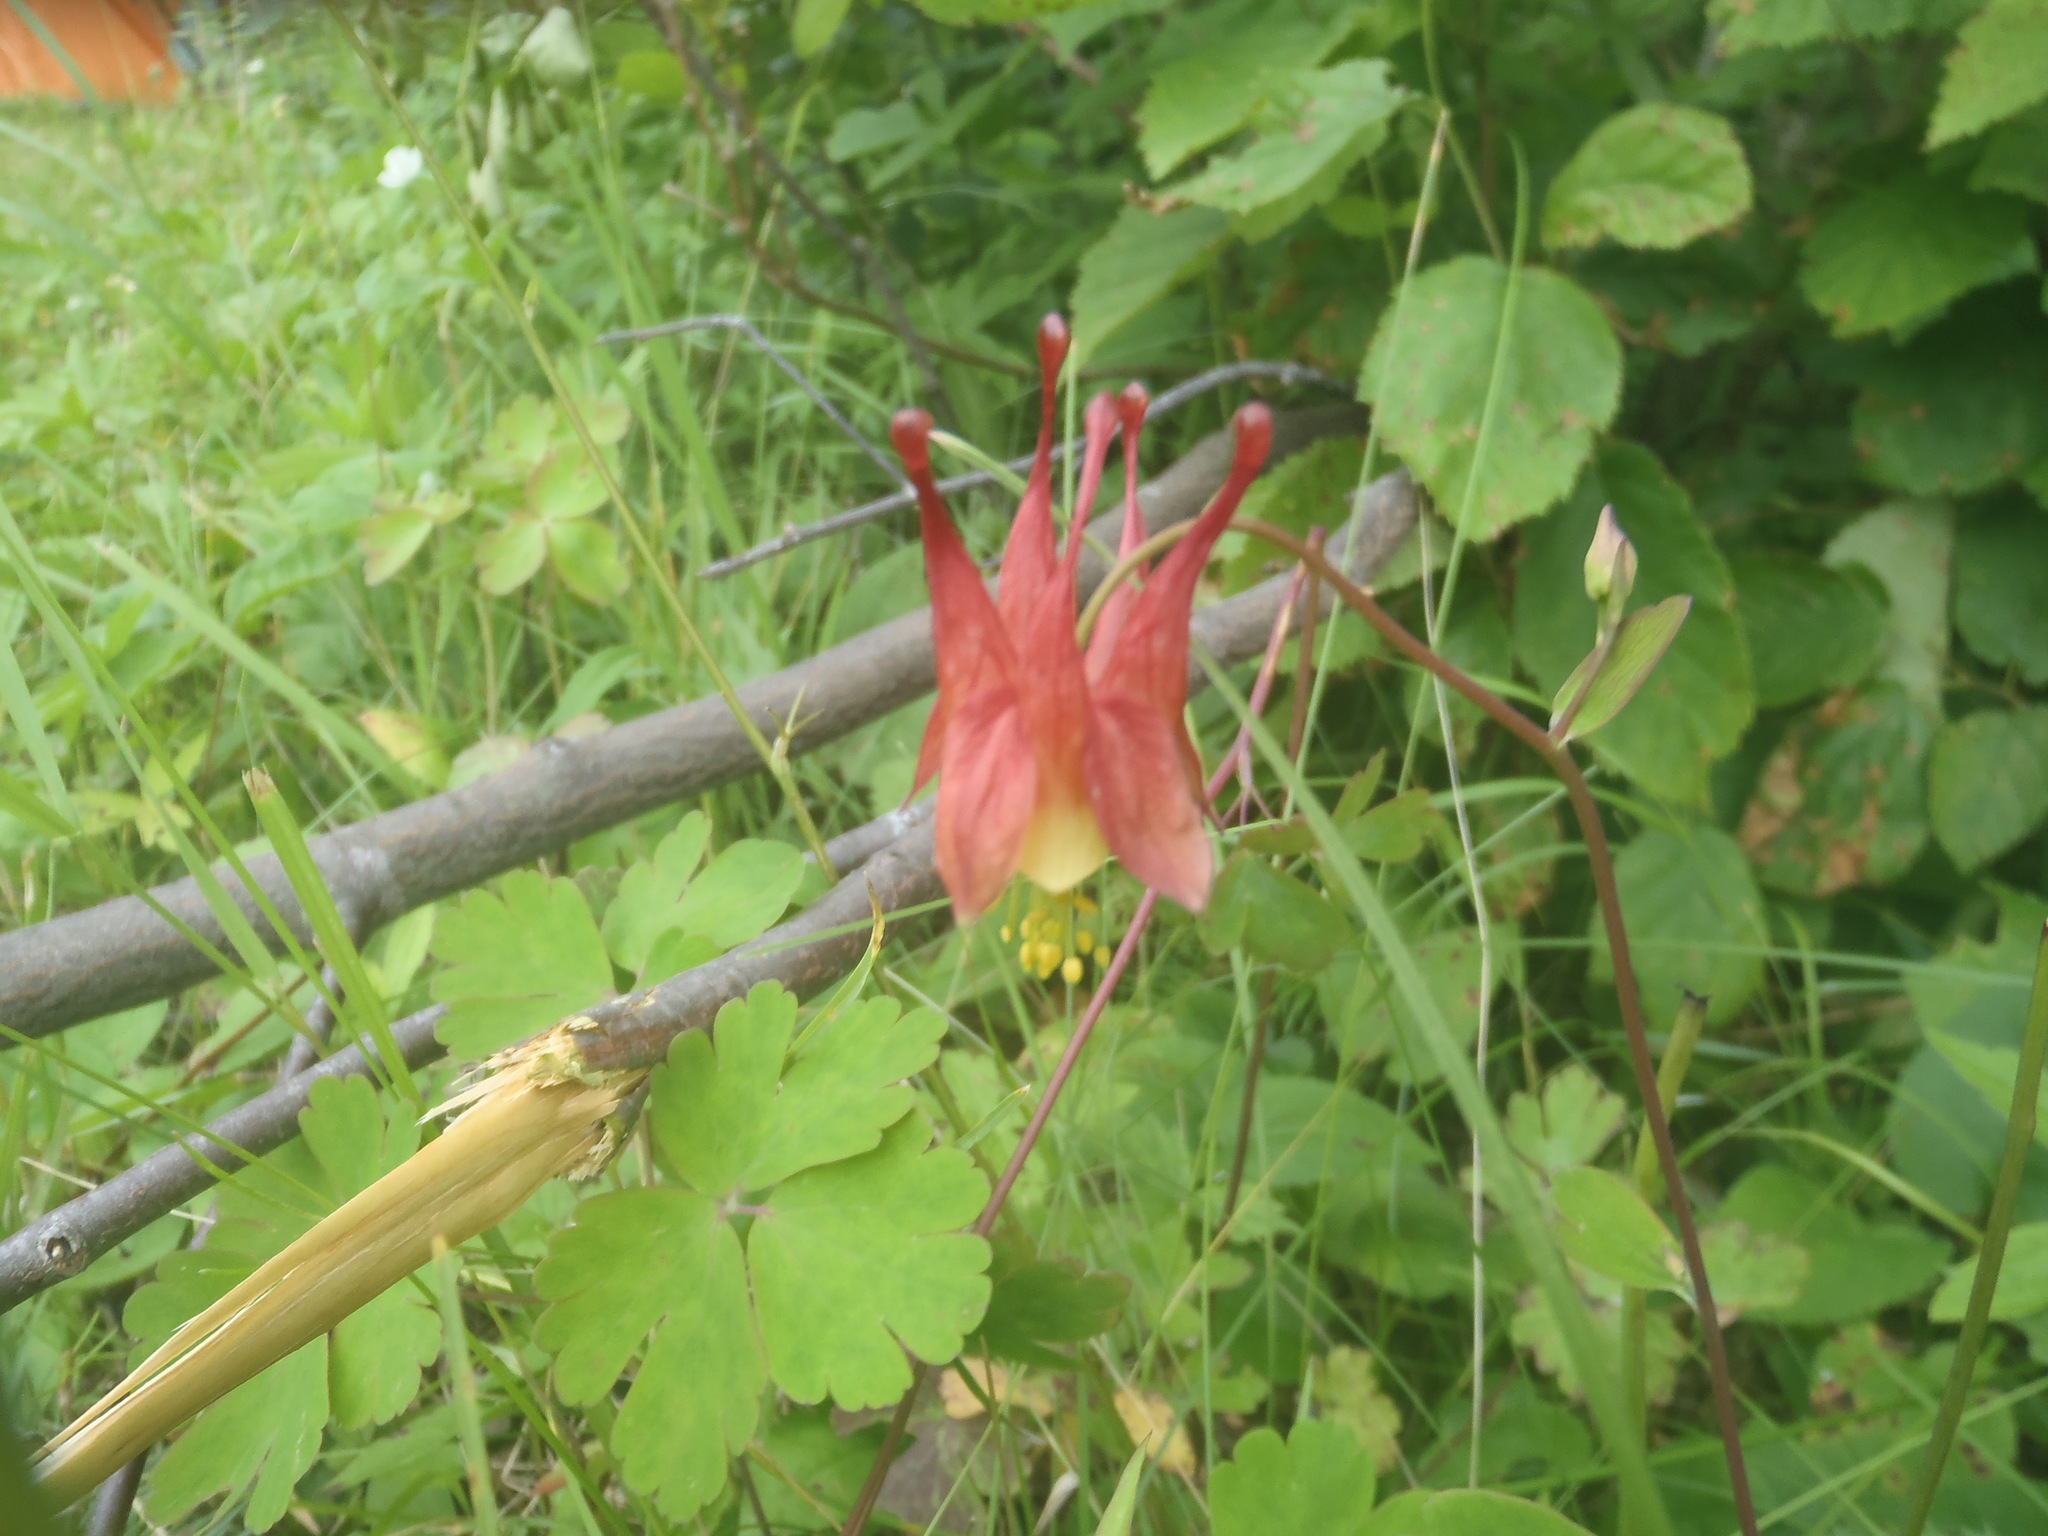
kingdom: Plantae
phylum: Tracheophyta
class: Magnoliopsida
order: Ranunculales
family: Ranunculaceae
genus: Aquilegia
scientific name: Aquilegia canadensis
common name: American columbine
